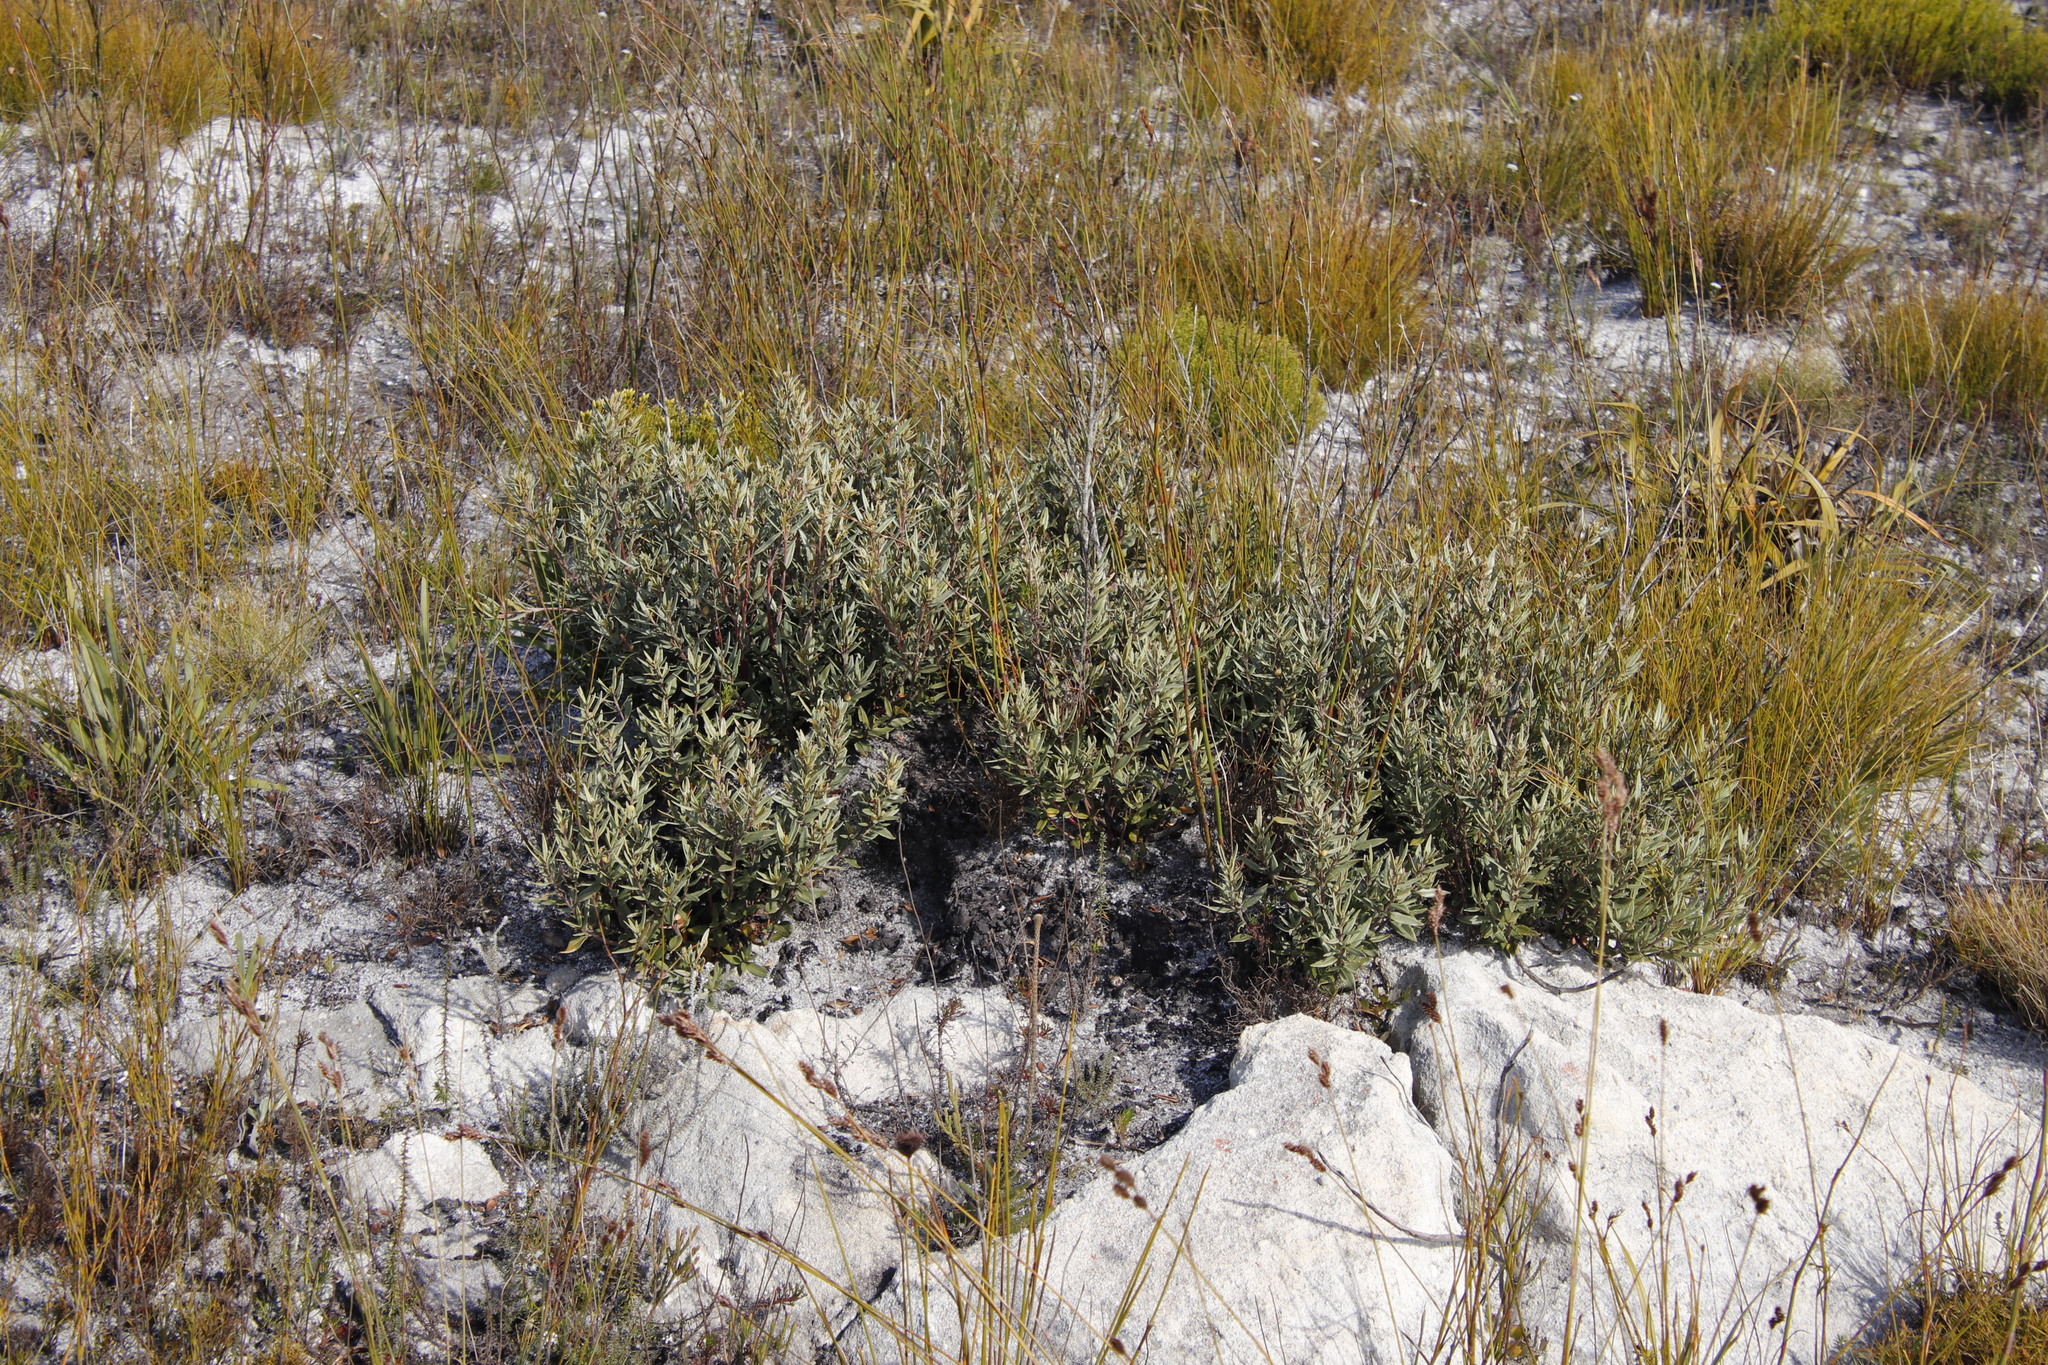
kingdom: Plantae
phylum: Tracheophyta
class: Magnoliopsida
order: Cornales
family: Grubbiaceae
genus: Grubbia
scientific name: Grubbia tomentosa
